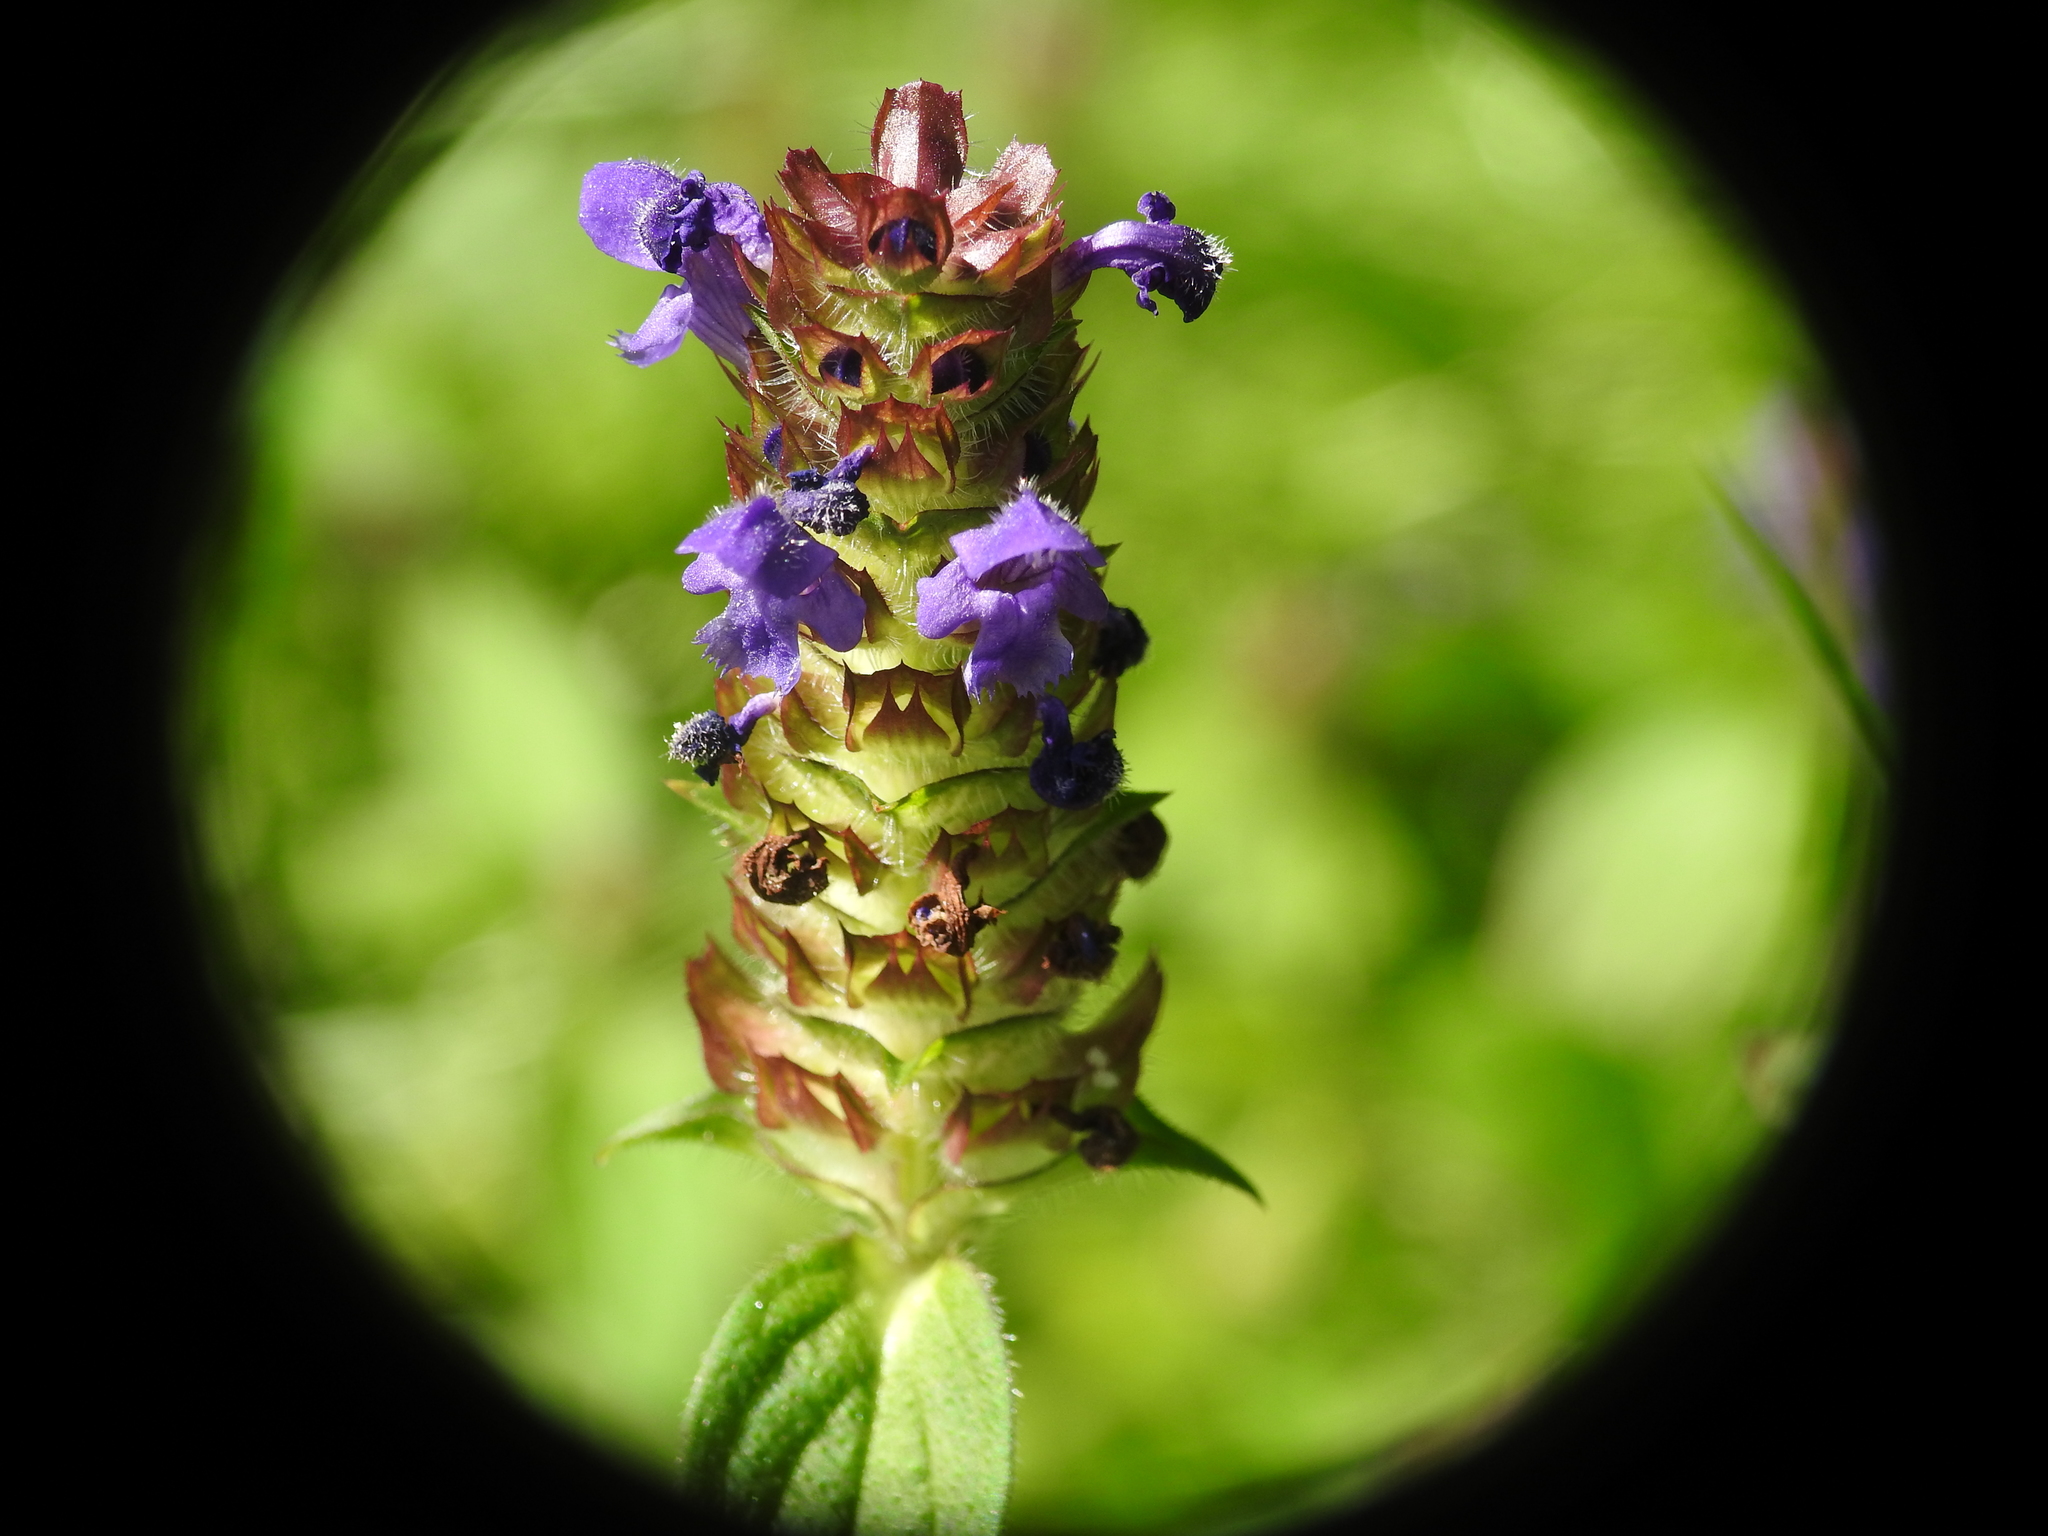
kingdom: Plantae
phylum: Tracheophyta
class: Magnoliopsida
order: Lamiales
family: Lamiaceae
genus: Prunella
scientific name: Prunella vulgaris
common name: Heal-all
